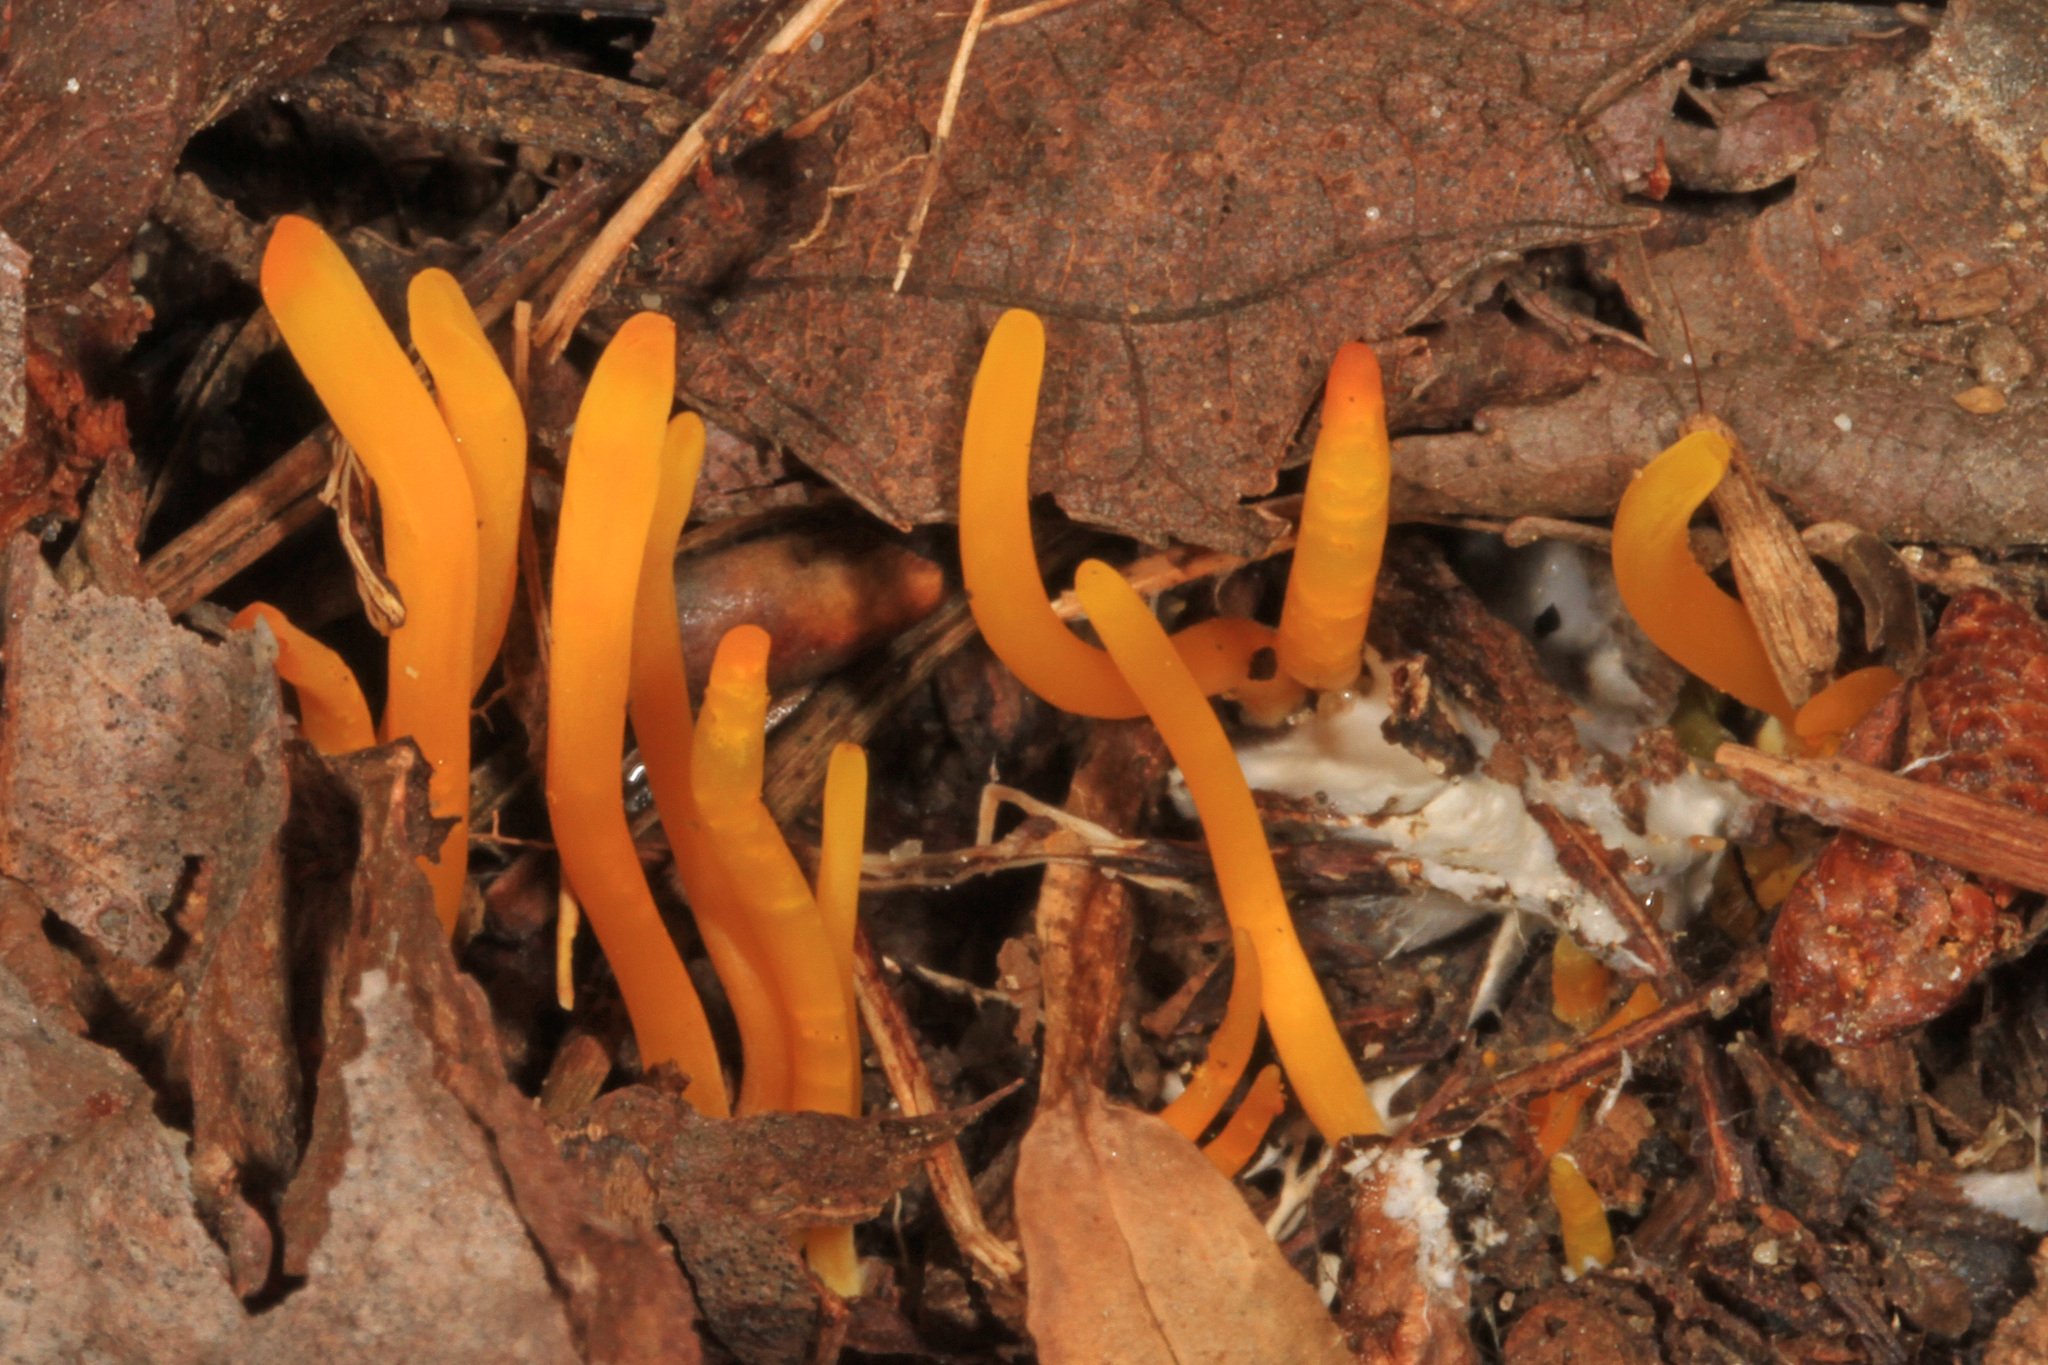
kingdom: Fungi
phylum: Basidiomycota
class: Agaricomycetes
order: Agaricales
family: Clavariaceae
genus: Clavulinopsis
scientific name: Clavulinopsis fusiformis
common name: Golden spindles
